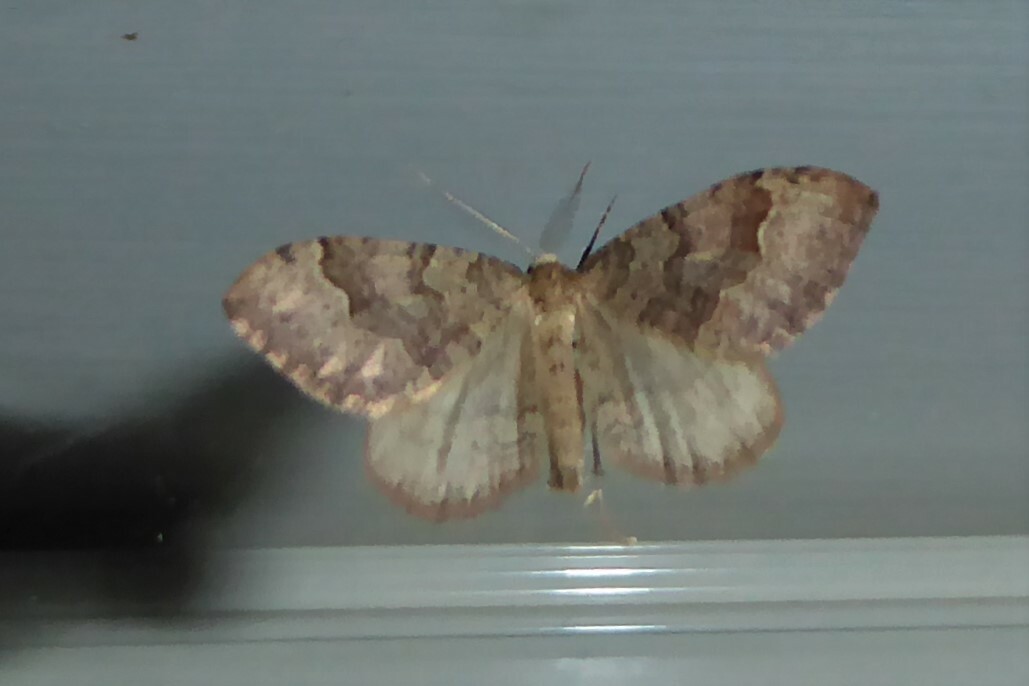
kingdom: Animalia
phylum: Arthropoda
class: Insecta
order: Lepidoptera
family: Geometridae
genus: Epyaxa
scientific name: Epyaxa rosearia
